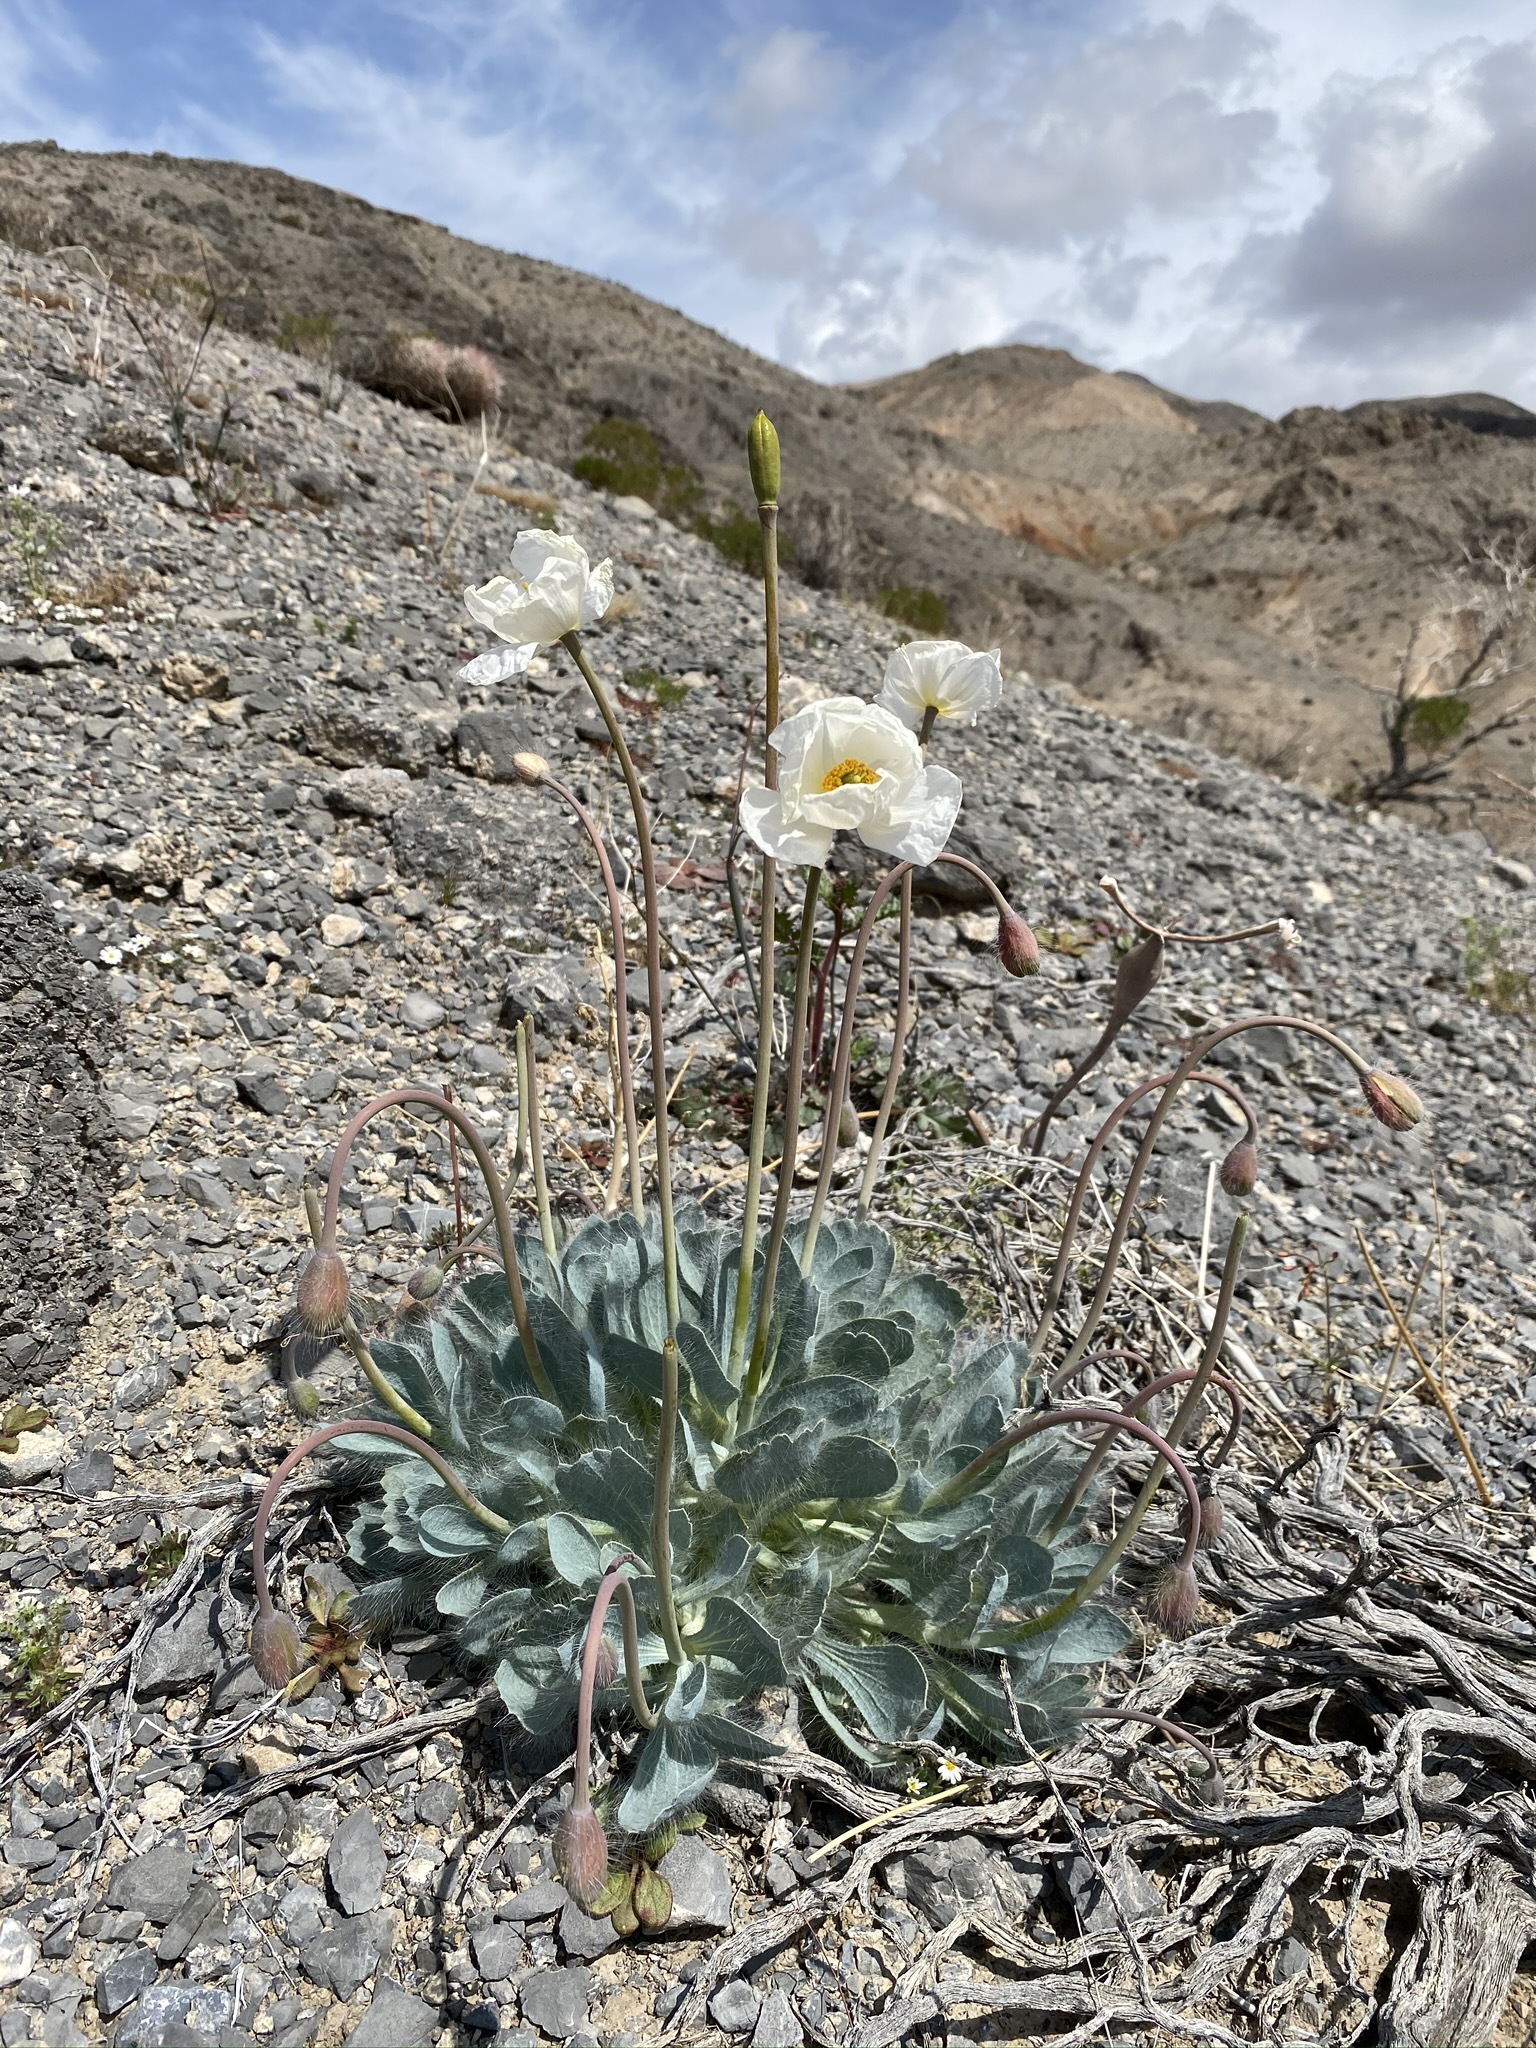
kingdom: Plantae
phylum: Tracheophyta
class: Magnoliopsida
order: Ranunculales
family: Papaveraceae
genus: Arctomecon
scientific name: Arctomecon merriamii
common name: White bear-poppy
